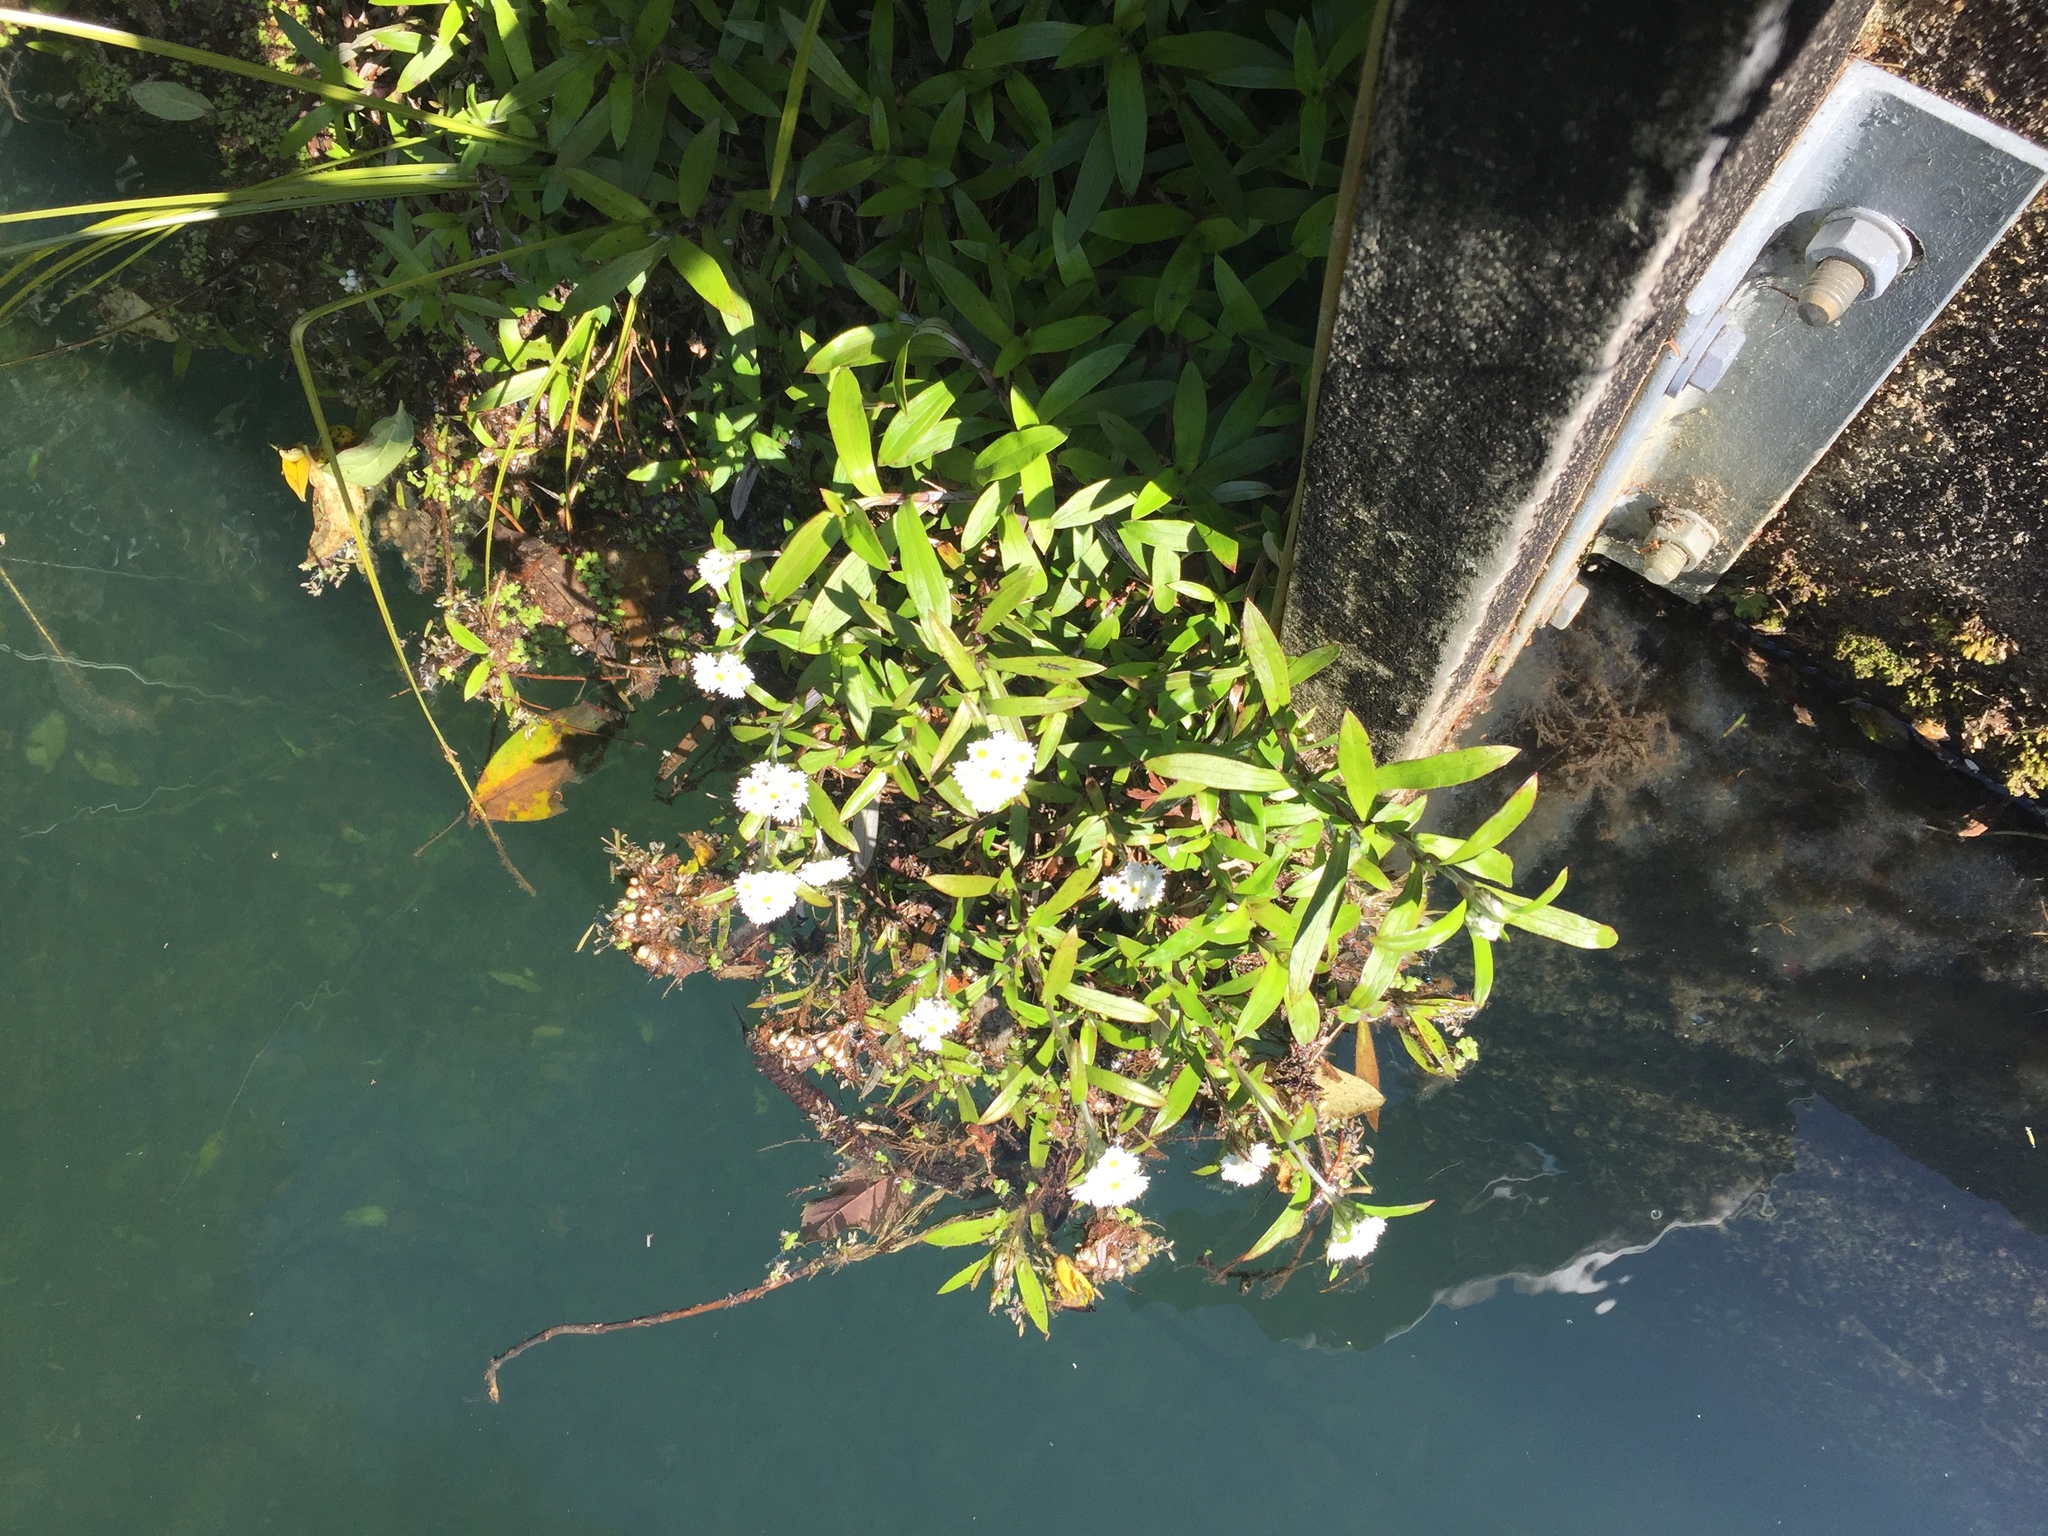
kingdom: Plantae
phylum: Tracheophyta
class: Magnoliopsida
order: Asterales
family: Asteraceae
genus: Anaphalioides
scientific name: Anaphalioides trinervis
